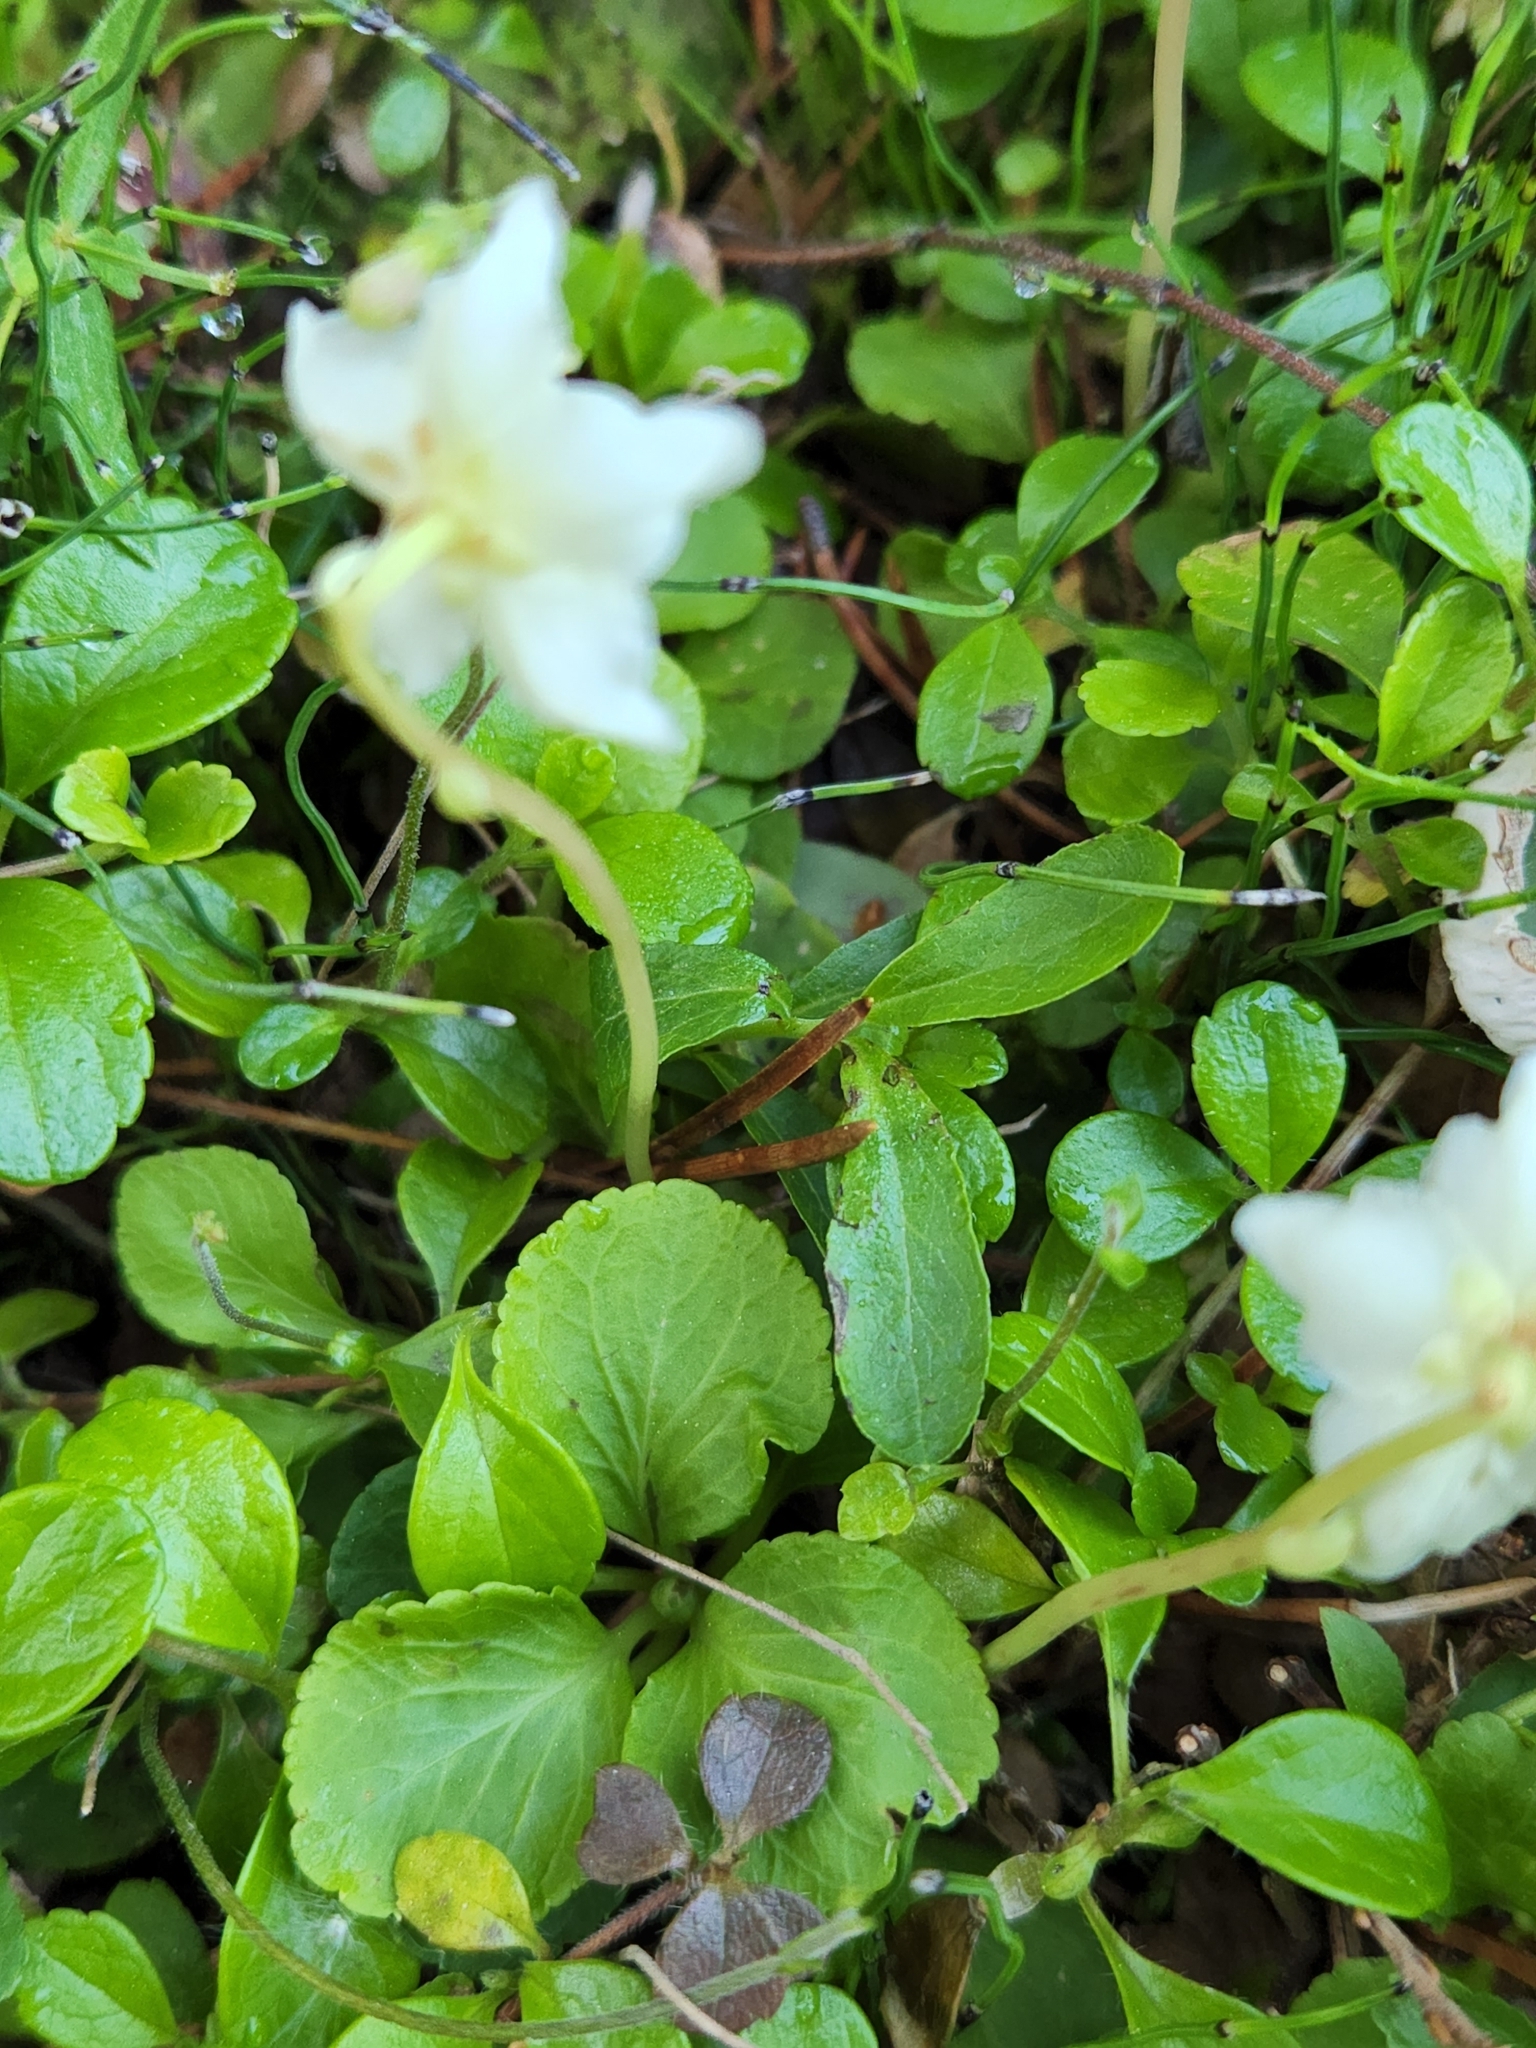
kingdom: Plantae
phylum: Tracheophyta
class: Magnoliopsida
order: Ericales
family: Ericaceae
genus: Moneses
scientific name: Moneses uniflora
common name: One-flowered wintergreen
